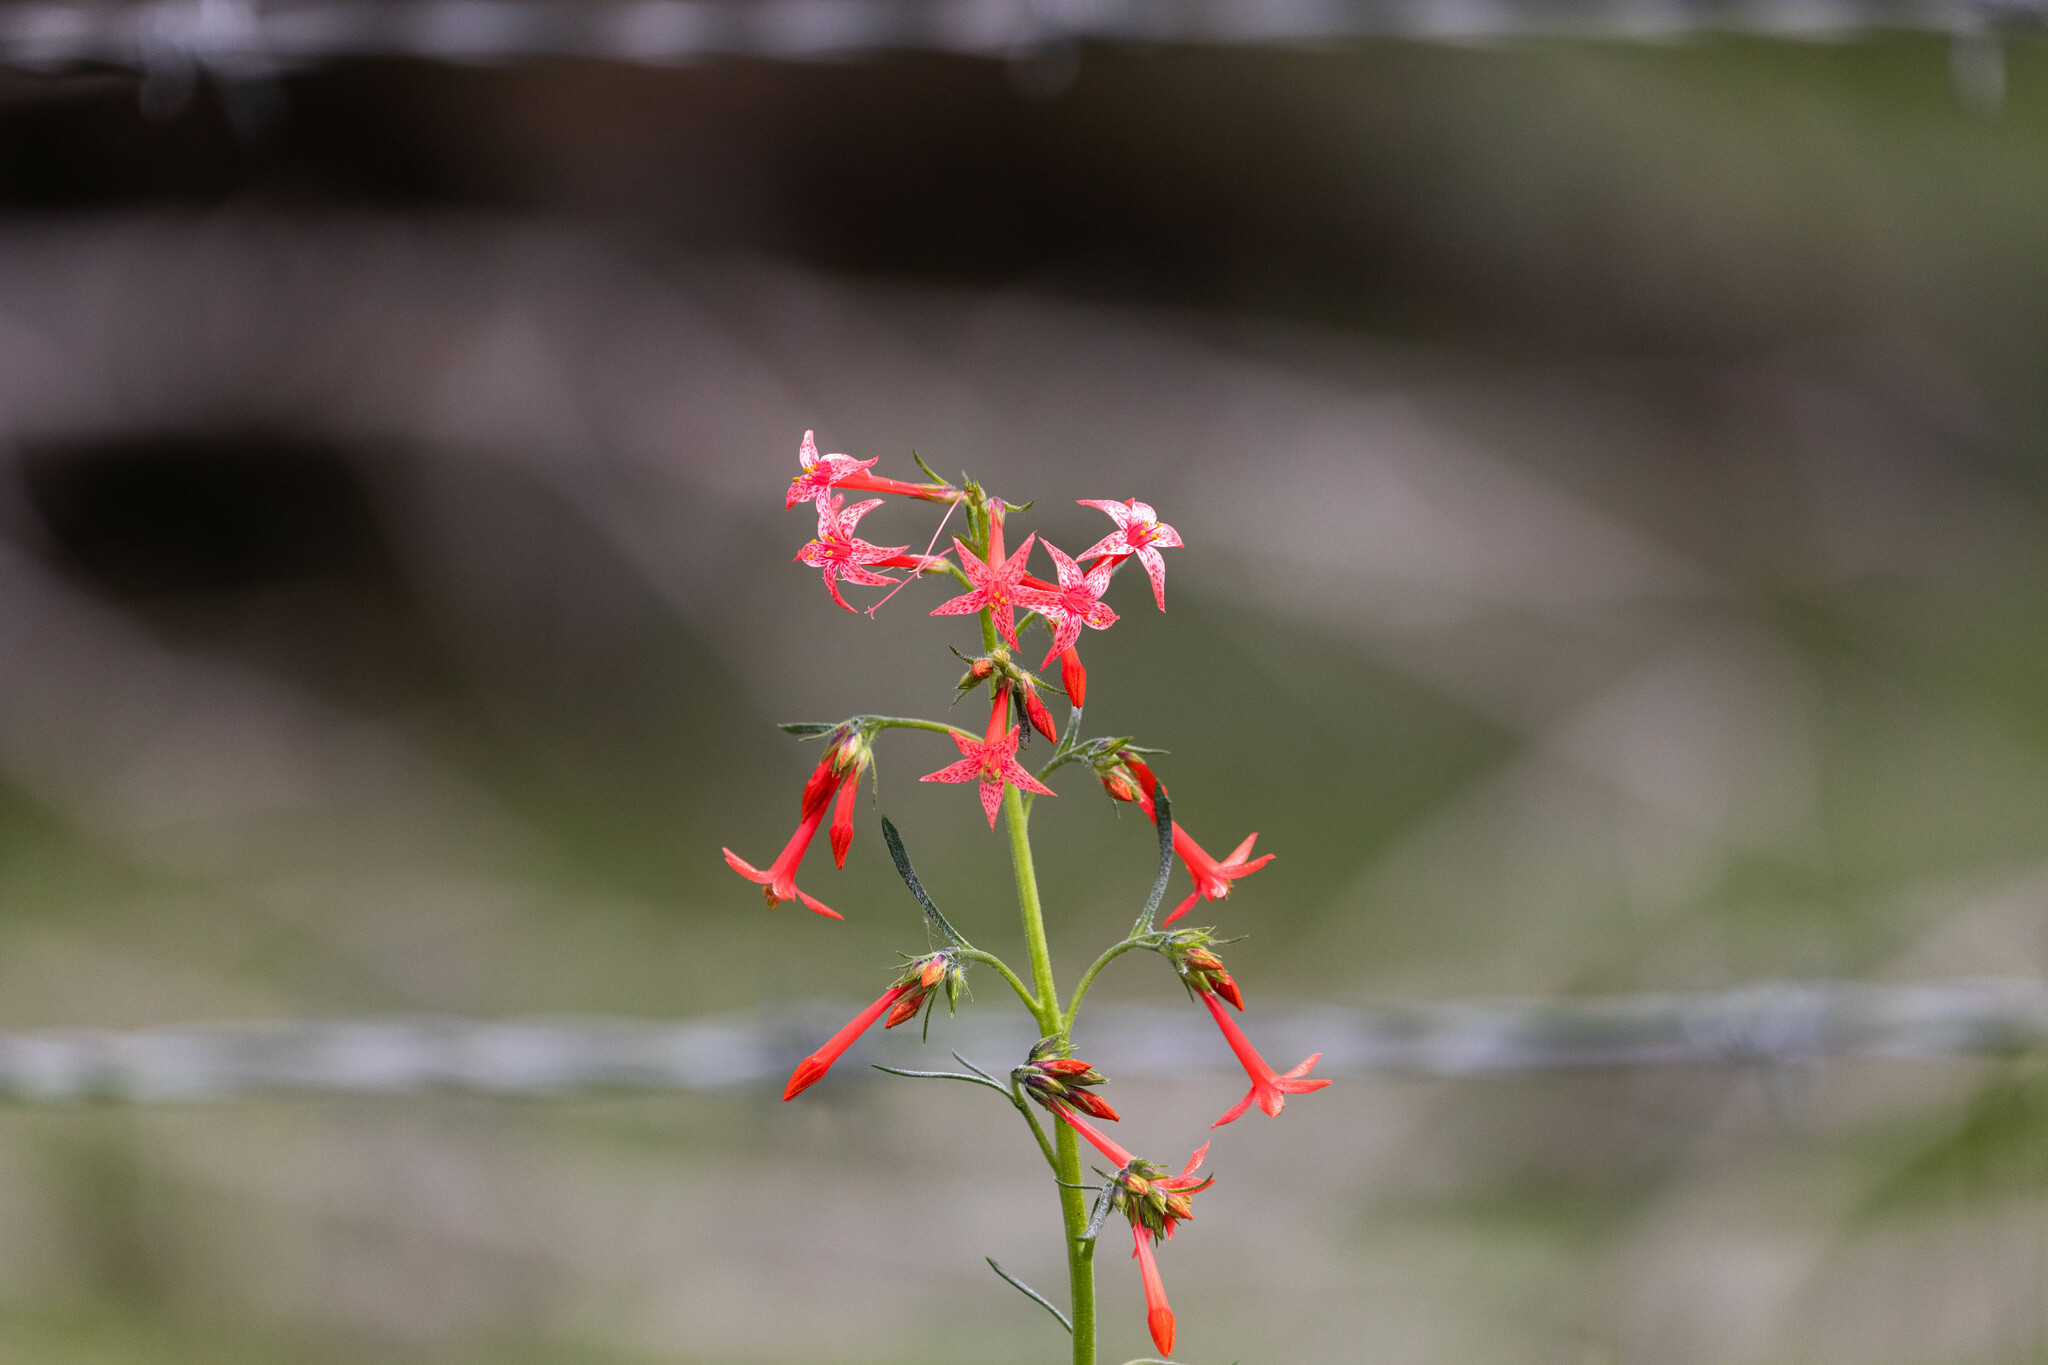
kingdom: Plantae
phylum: Tracheophyta
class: Magnoliopsida
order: Ericales
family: Polemoniaceae
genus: Ipomopsis
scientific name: Ipomopsis aggregata
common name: Scarlet gilia
